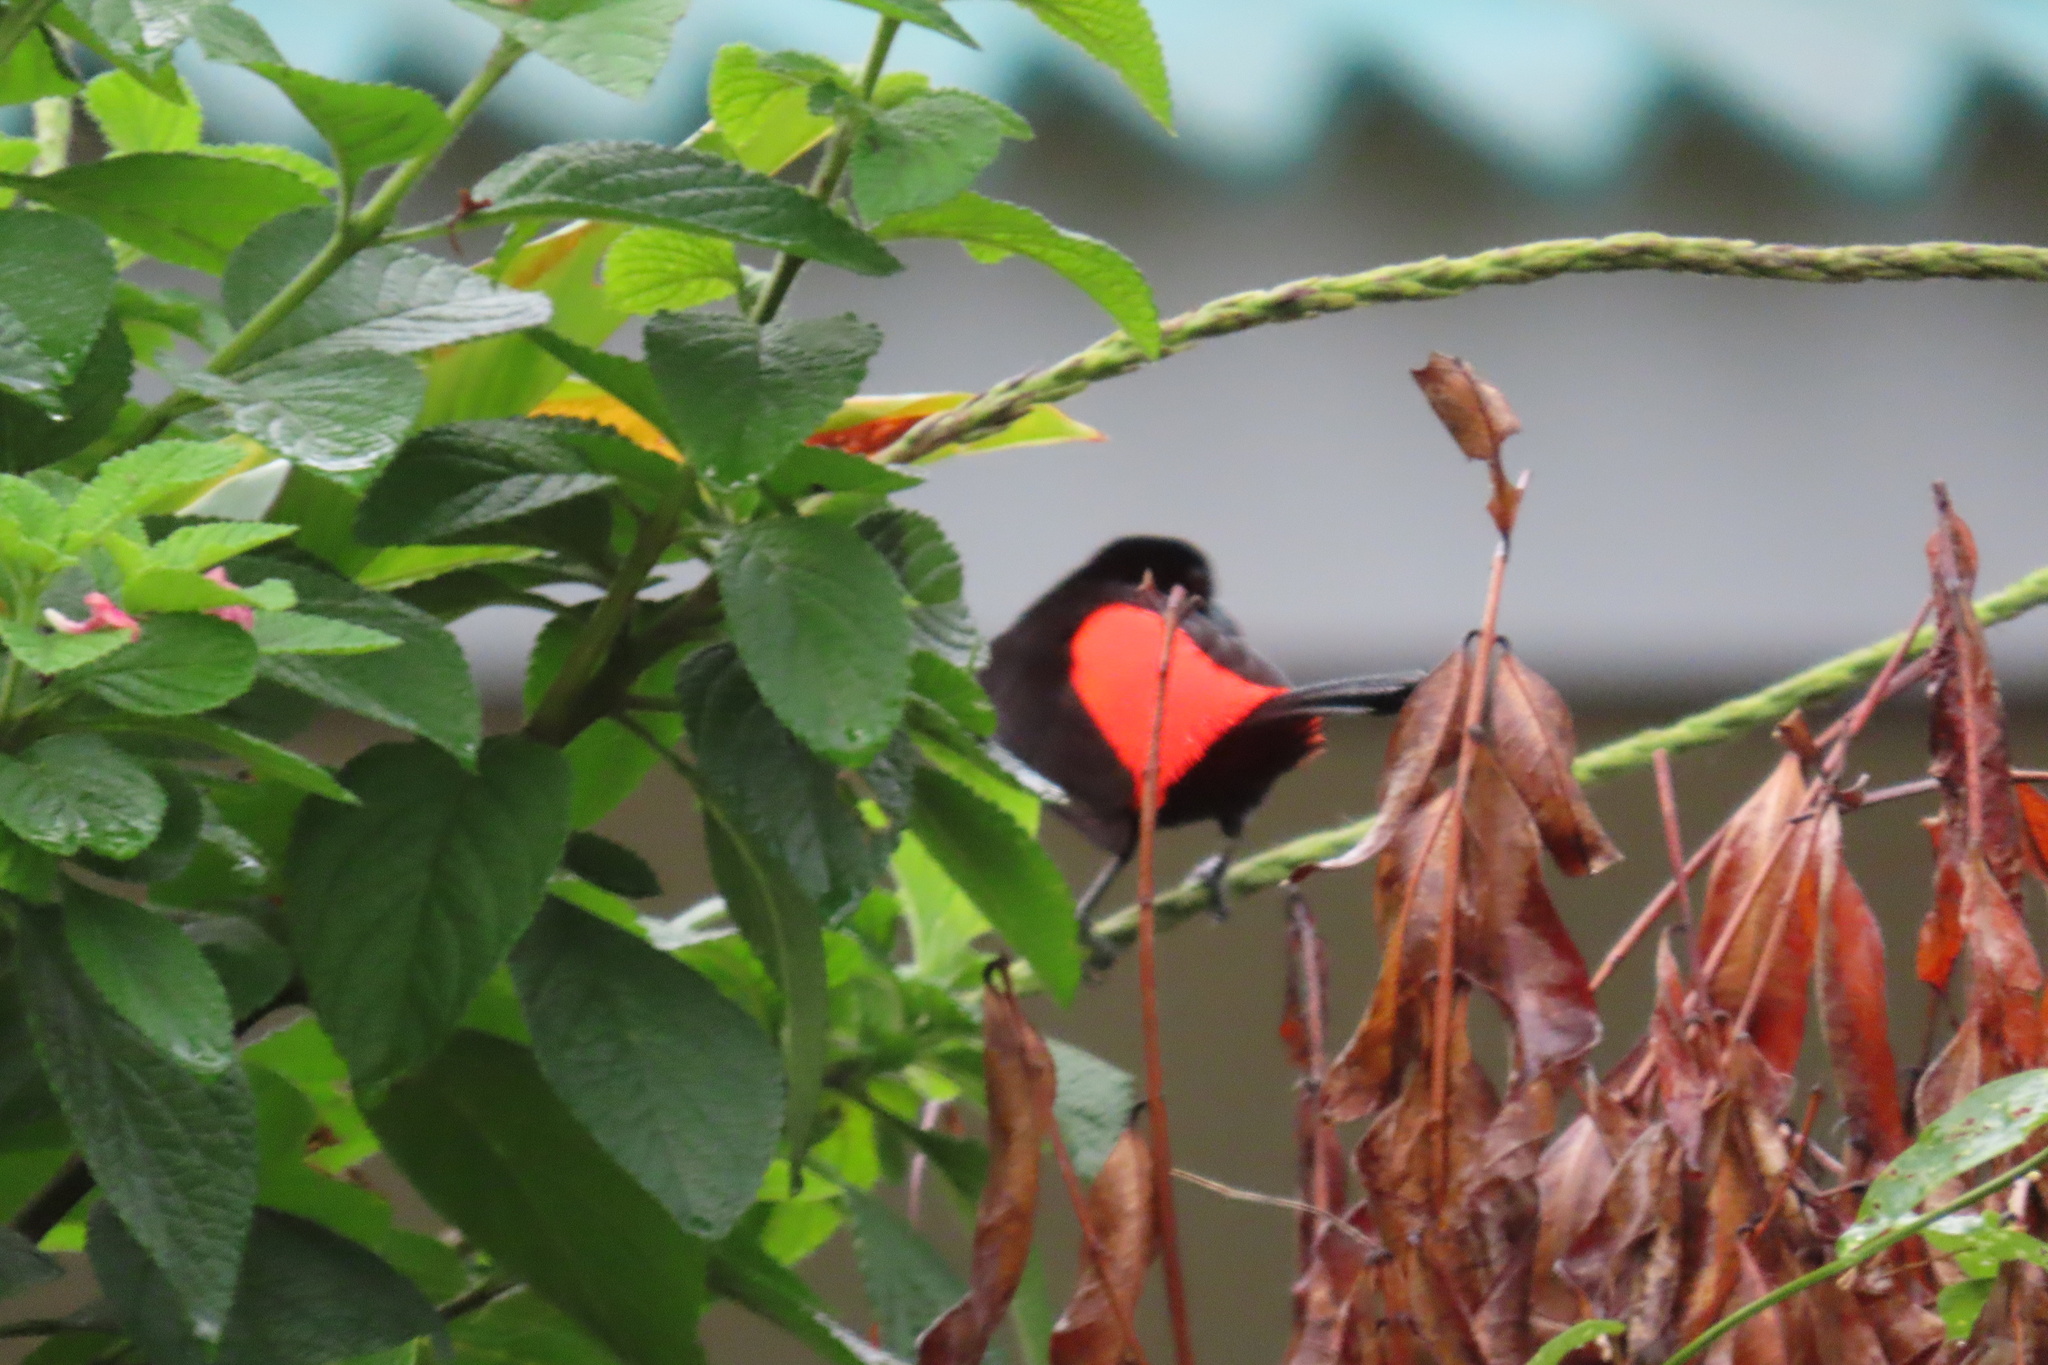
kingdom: Animalia
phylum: Chordata
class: Aves
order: Passeriformes
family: Thraupidae
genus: Ramphocelus
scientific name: Ramphocelus passerinii
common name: Passerini's tanager
